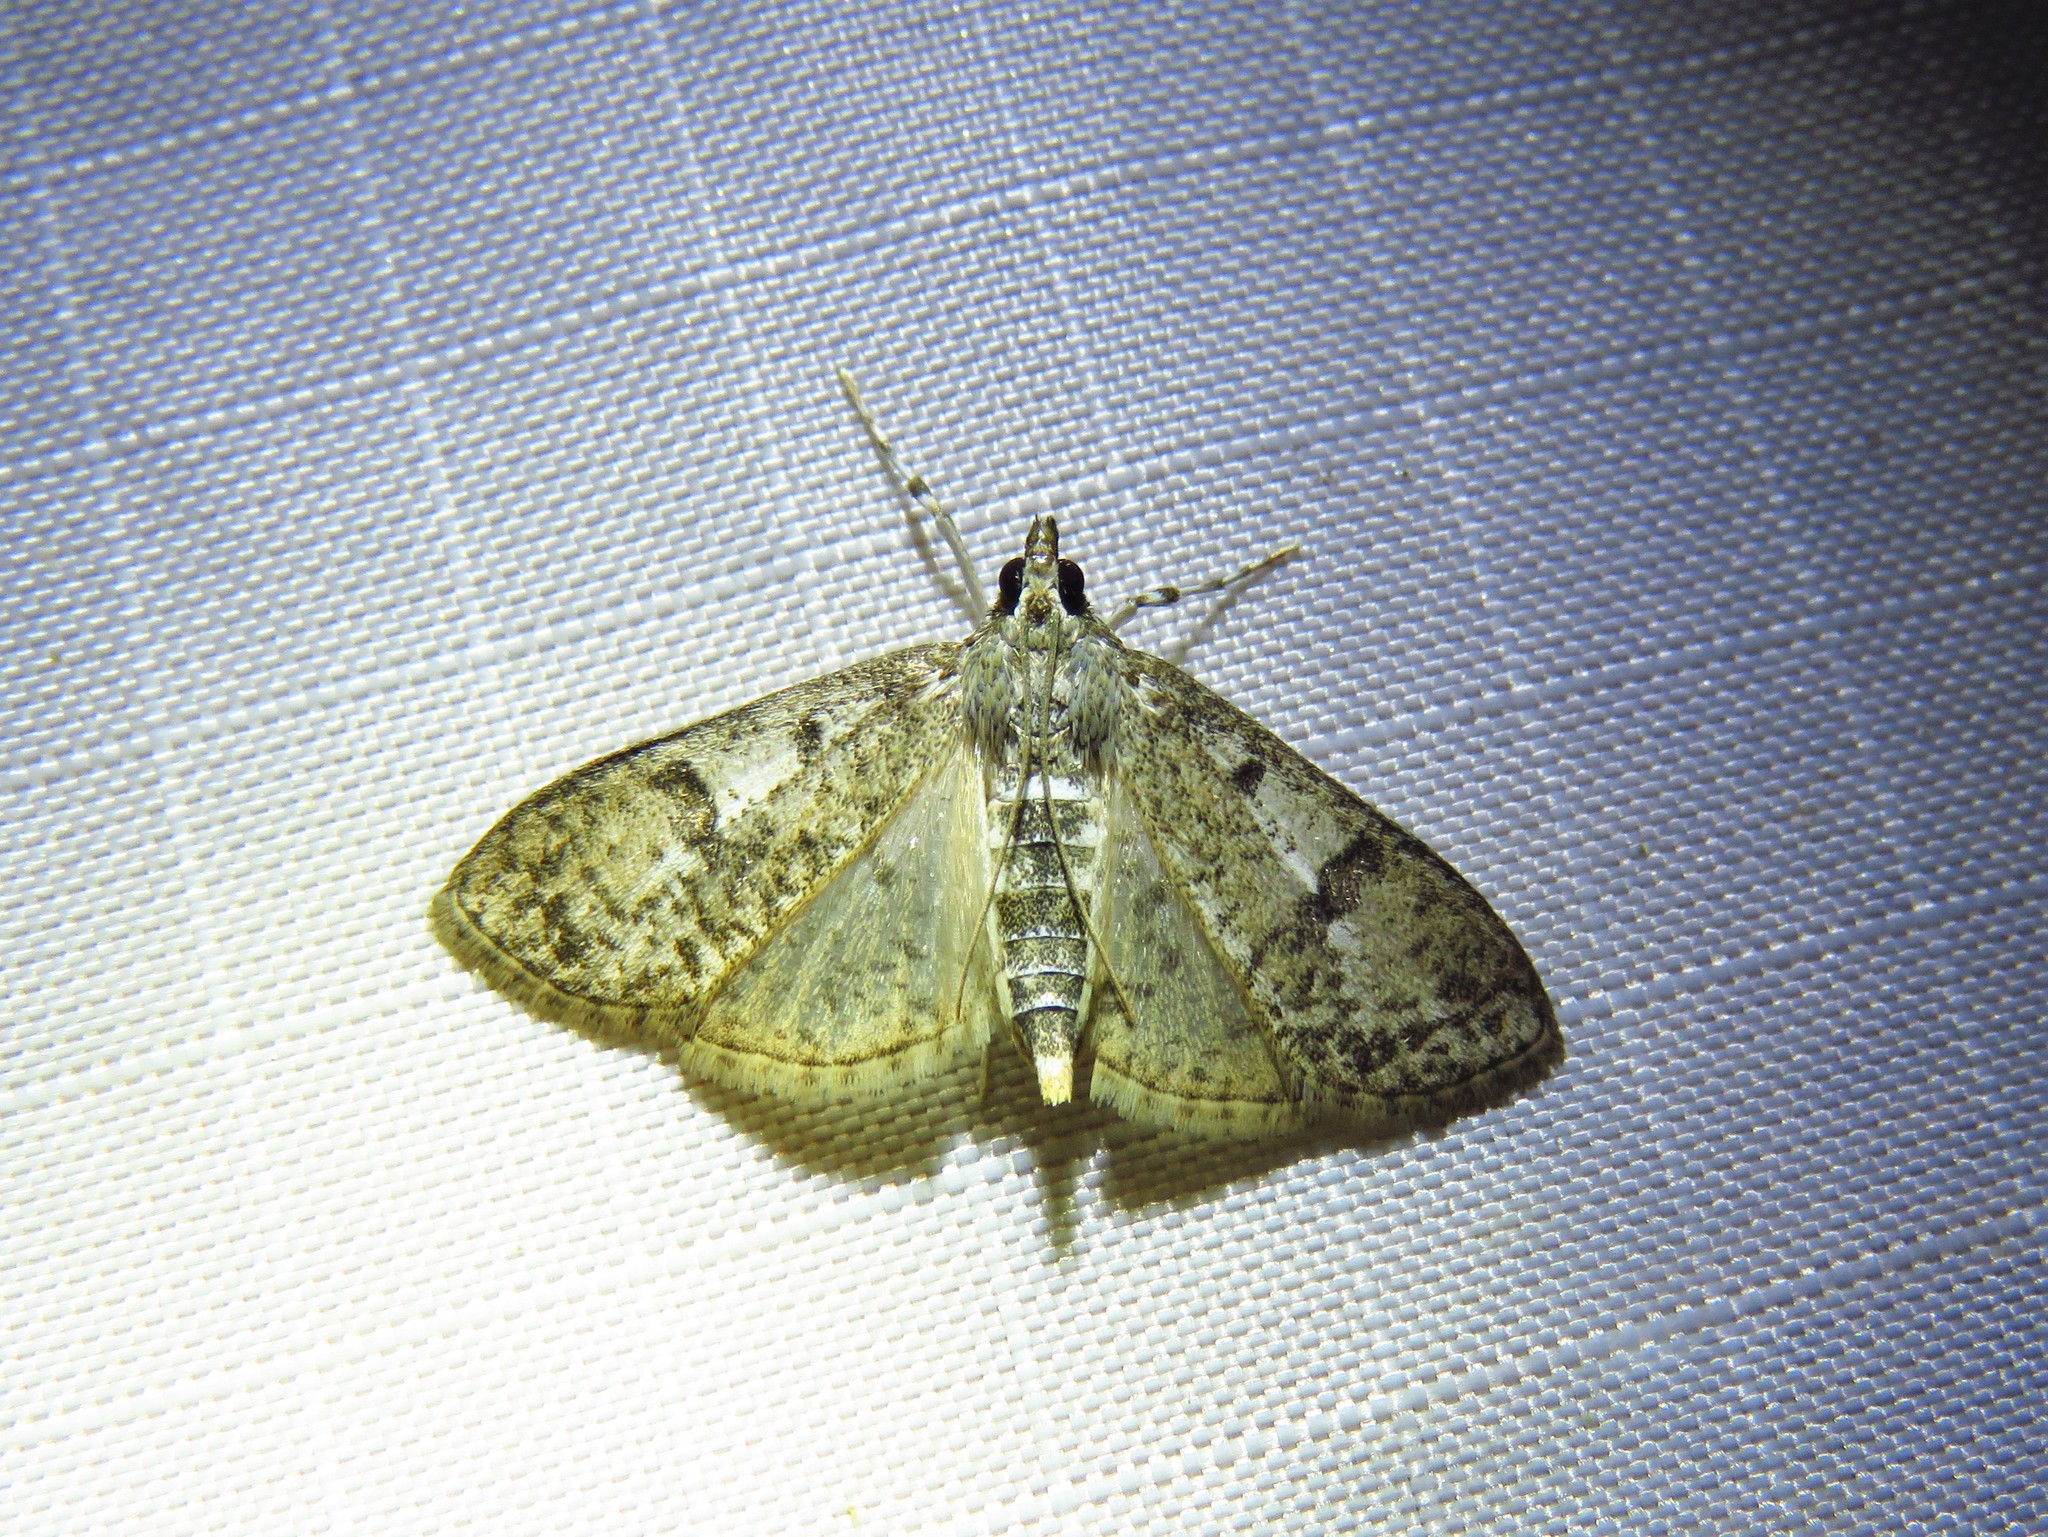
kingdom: Animalia
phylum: Arthropoda
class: Insecta
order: Lepidoptera
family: Crambidae
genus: Palpita
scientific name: Palpita freemanalis
